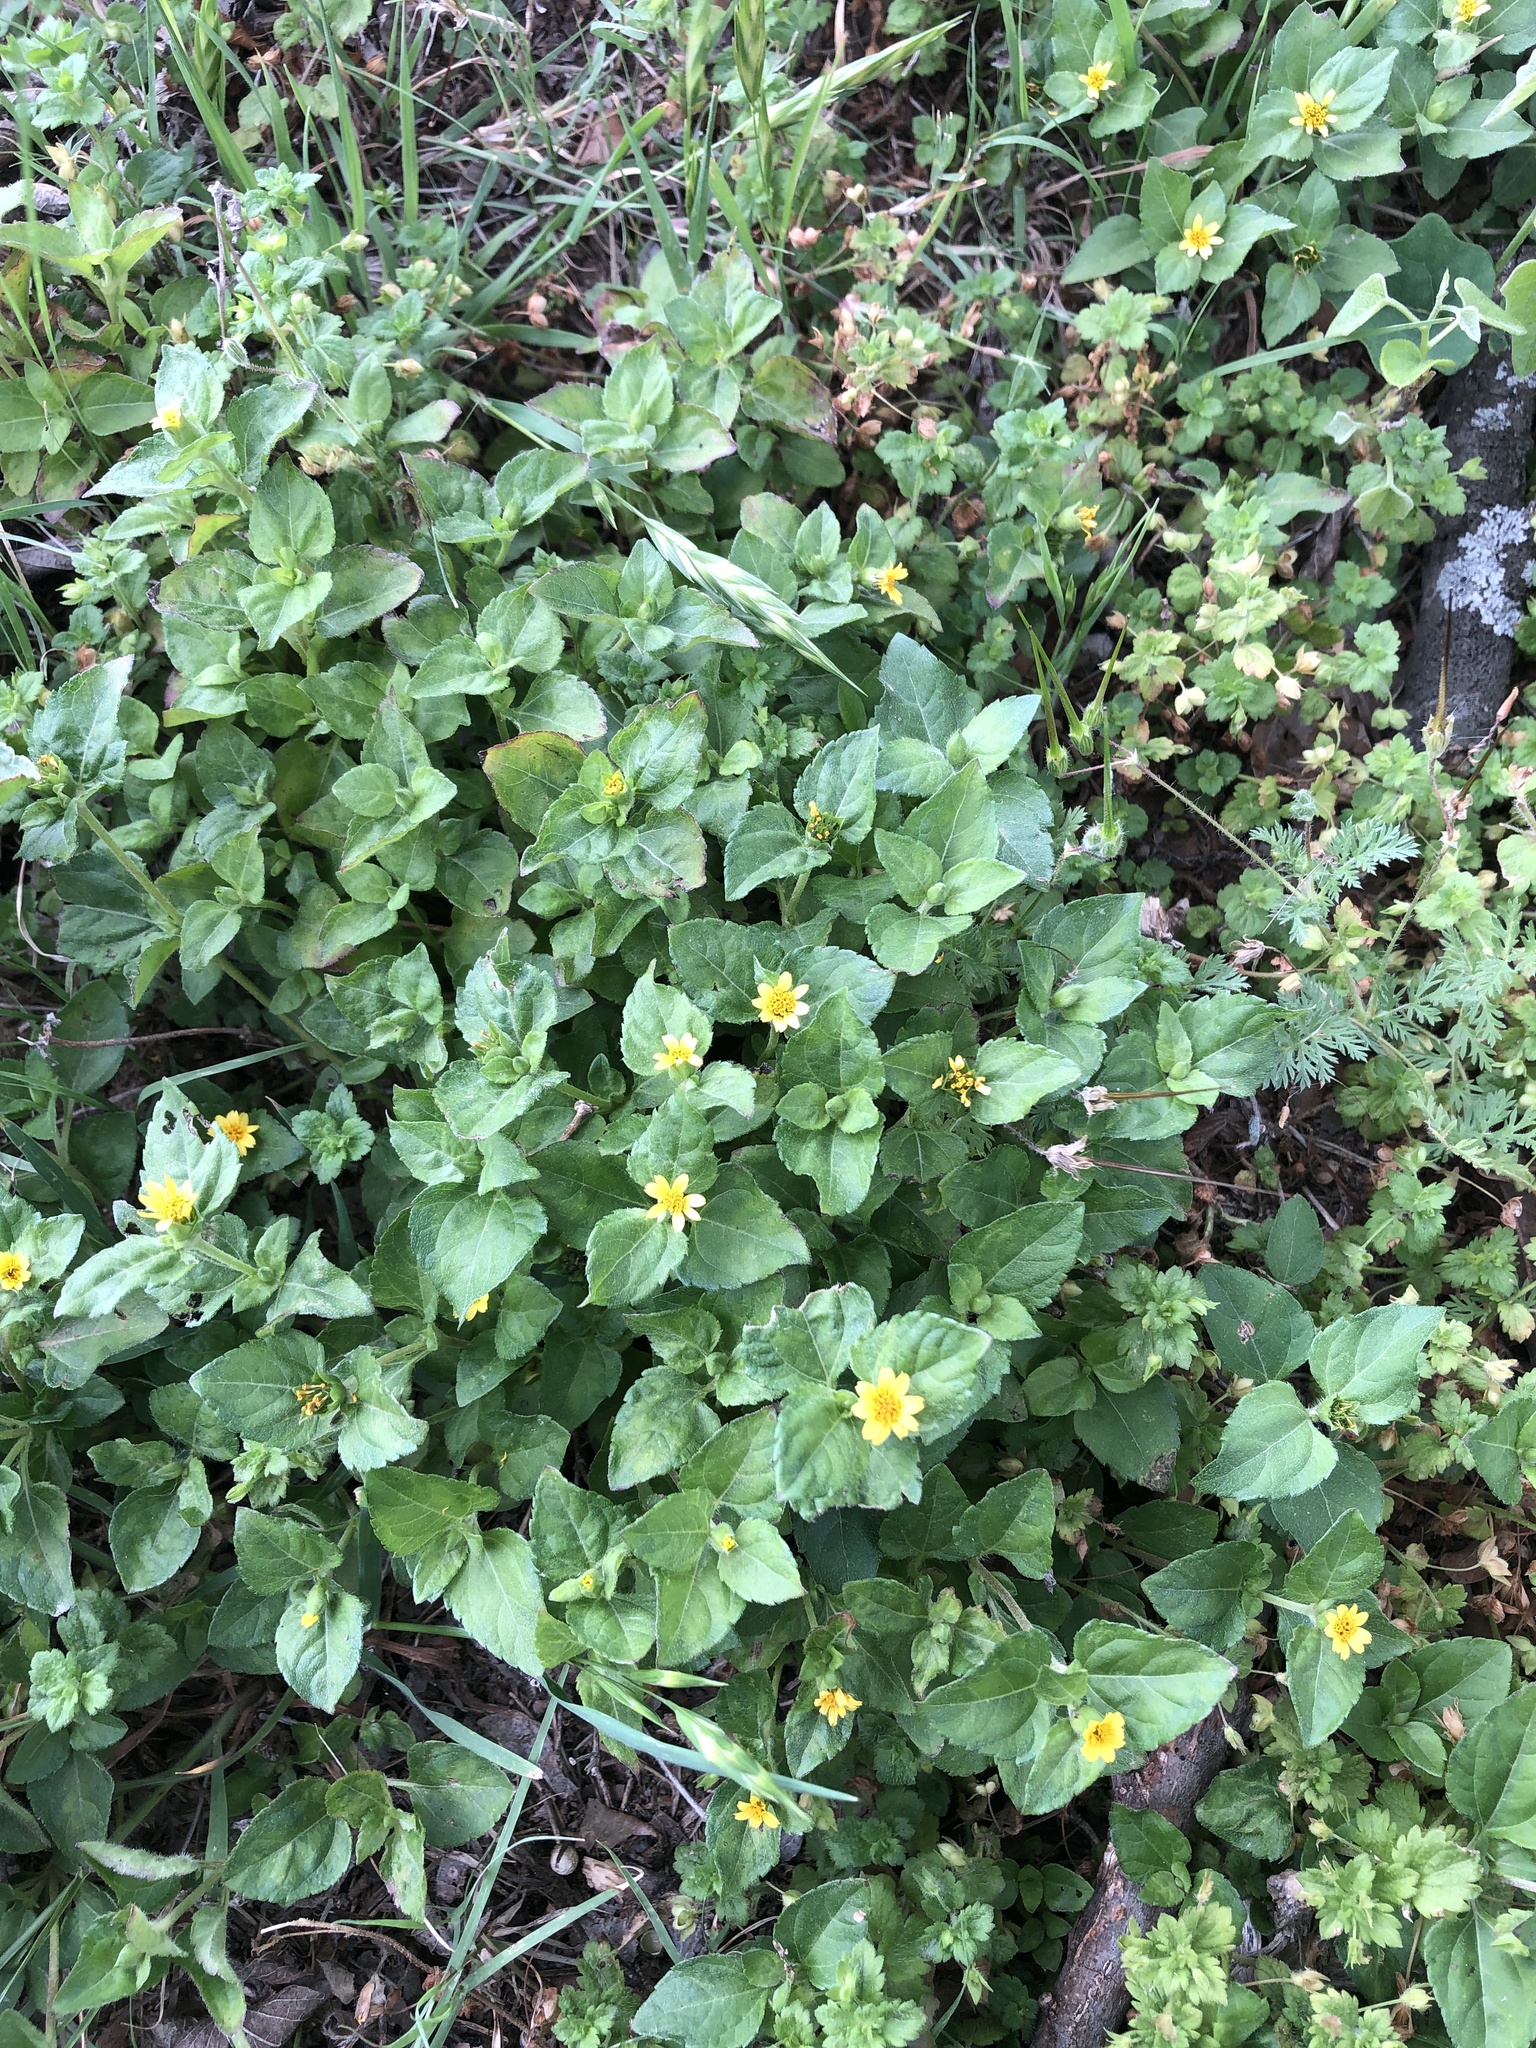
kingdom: Plantae
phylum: Tracheophyta
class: Magnoliopsida
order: Asterales
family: Asteraceae
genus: Calyptocarpus
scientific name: Calyptocarpus vialis
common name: Straggler daisy
